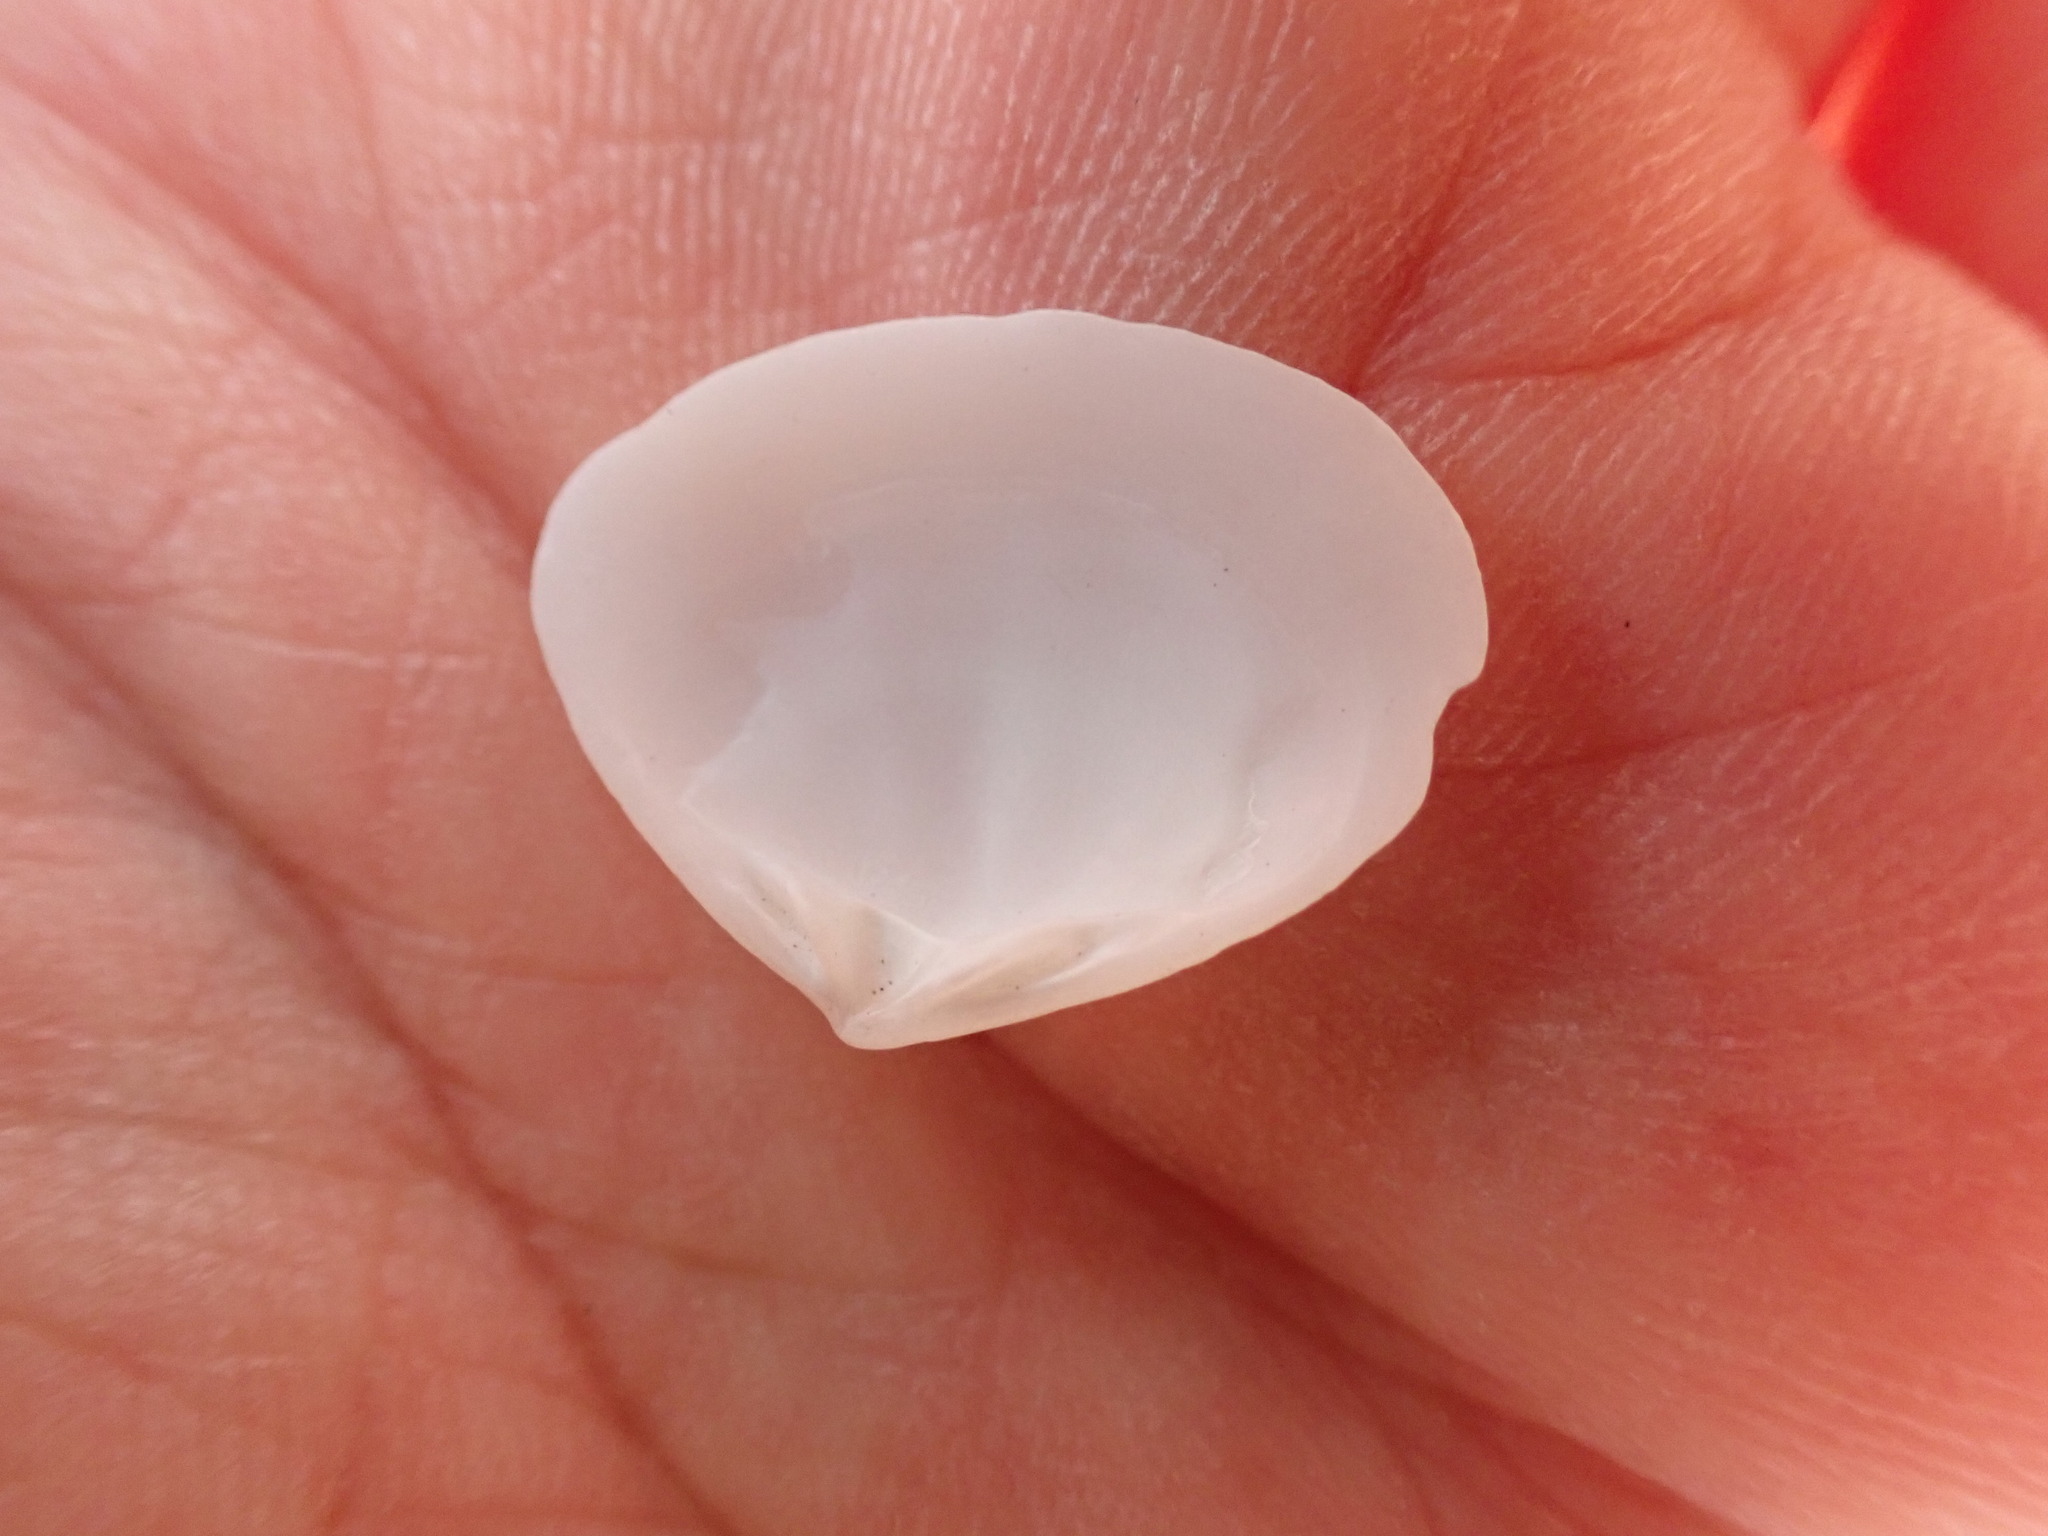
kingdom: Animalia
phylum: Mollusca
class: Bivalvia
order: Venerida
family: Mesodesmatidae
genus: Atactodea
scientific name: Atactodea striata
